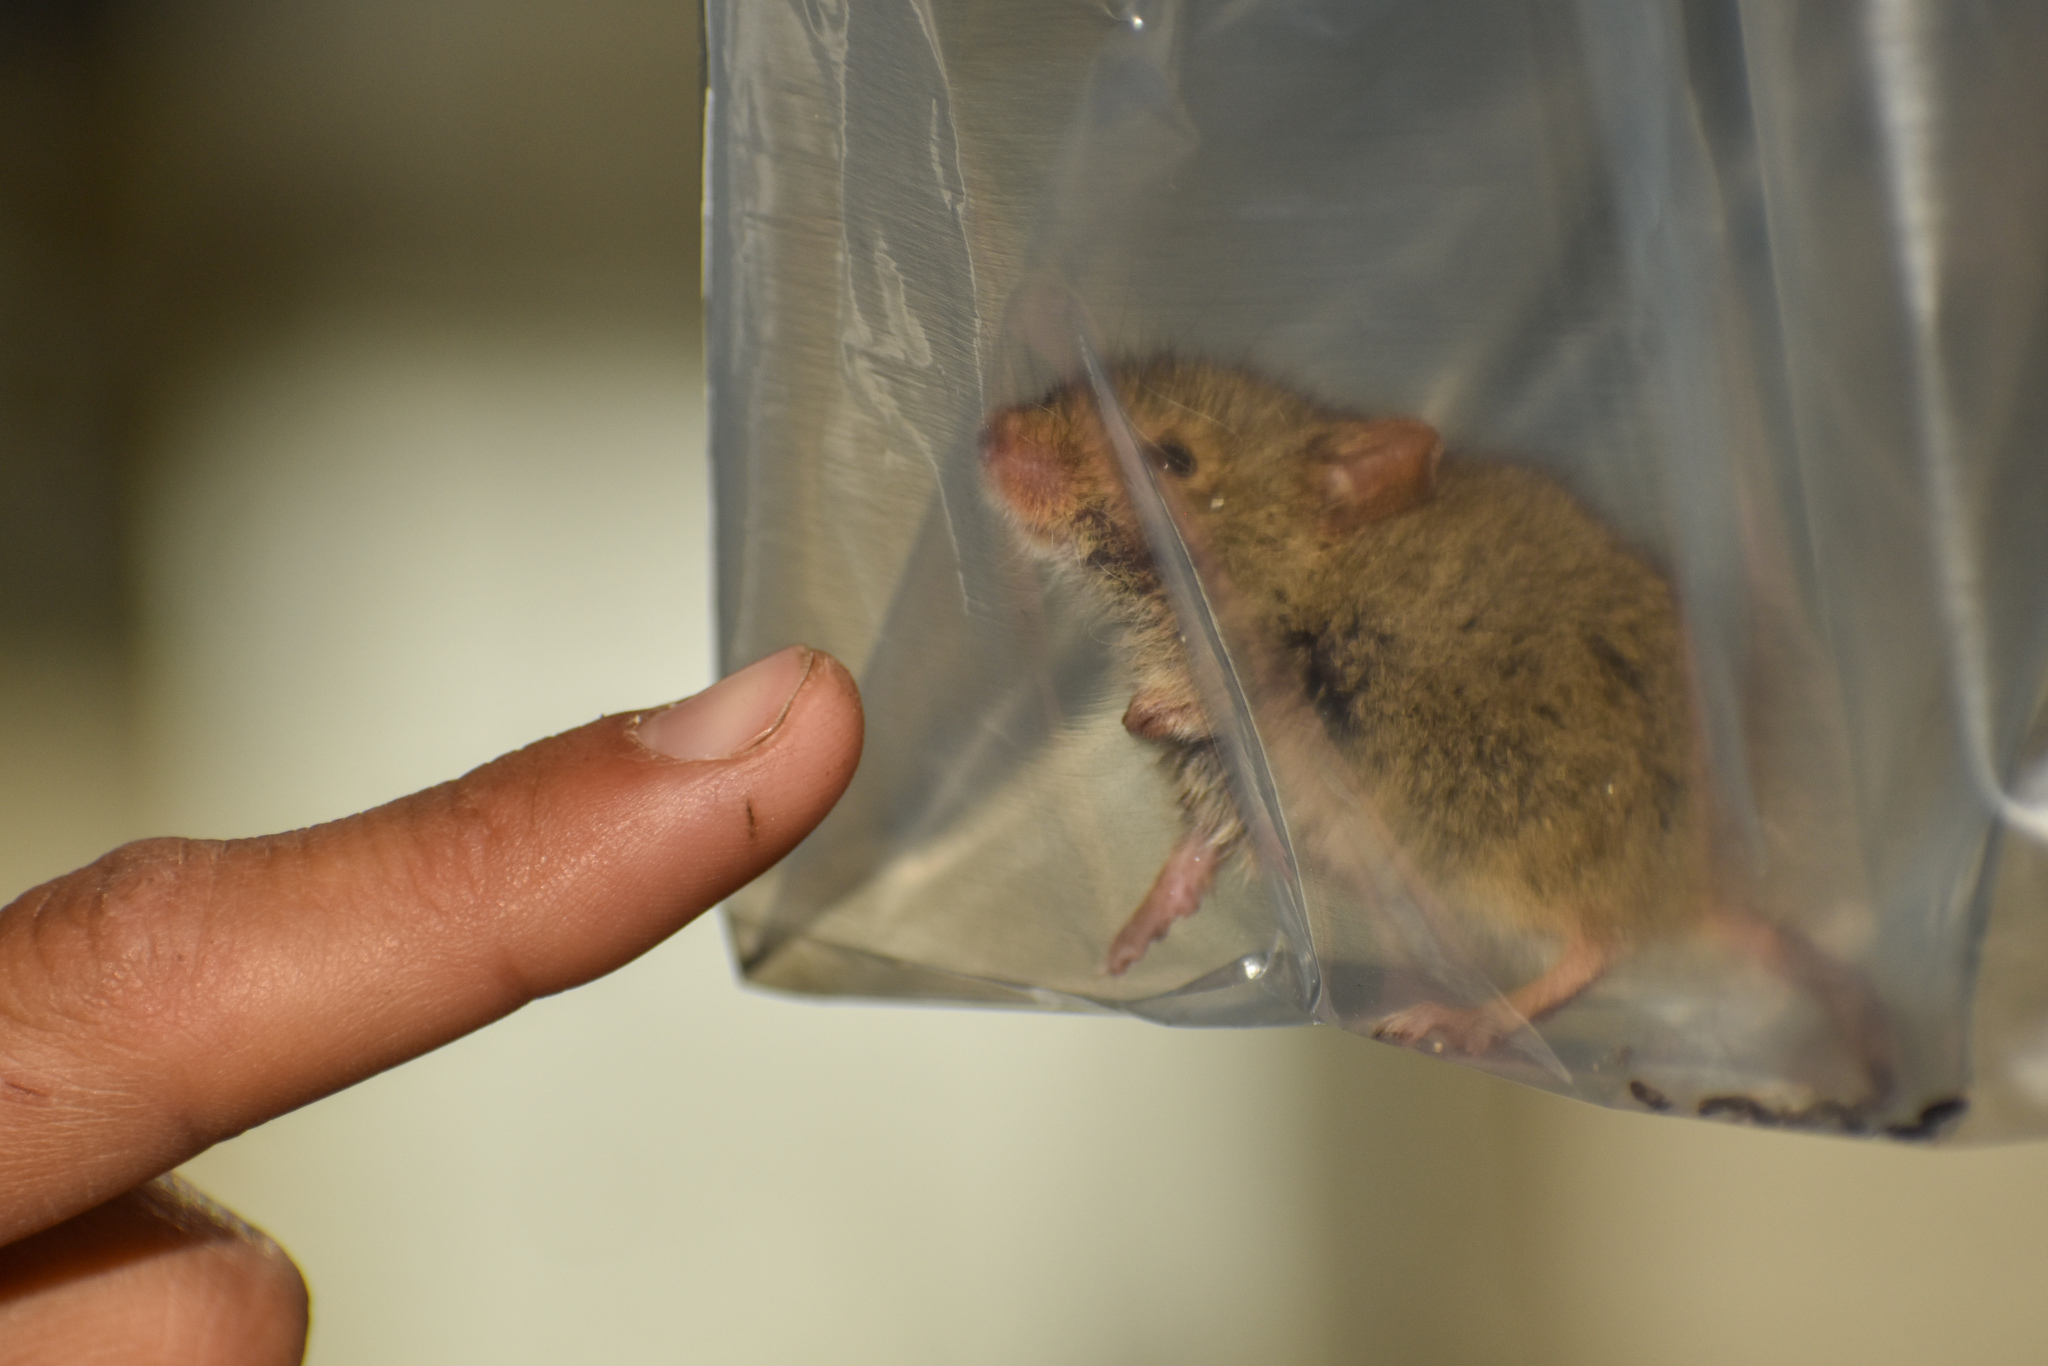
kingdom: Animalia
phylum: Chordata
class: Mammalia
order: Rodentia
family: Cricetidae
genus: Abrothrix
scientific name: Abrothrix olivaceus
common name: Olive-colored akodont
